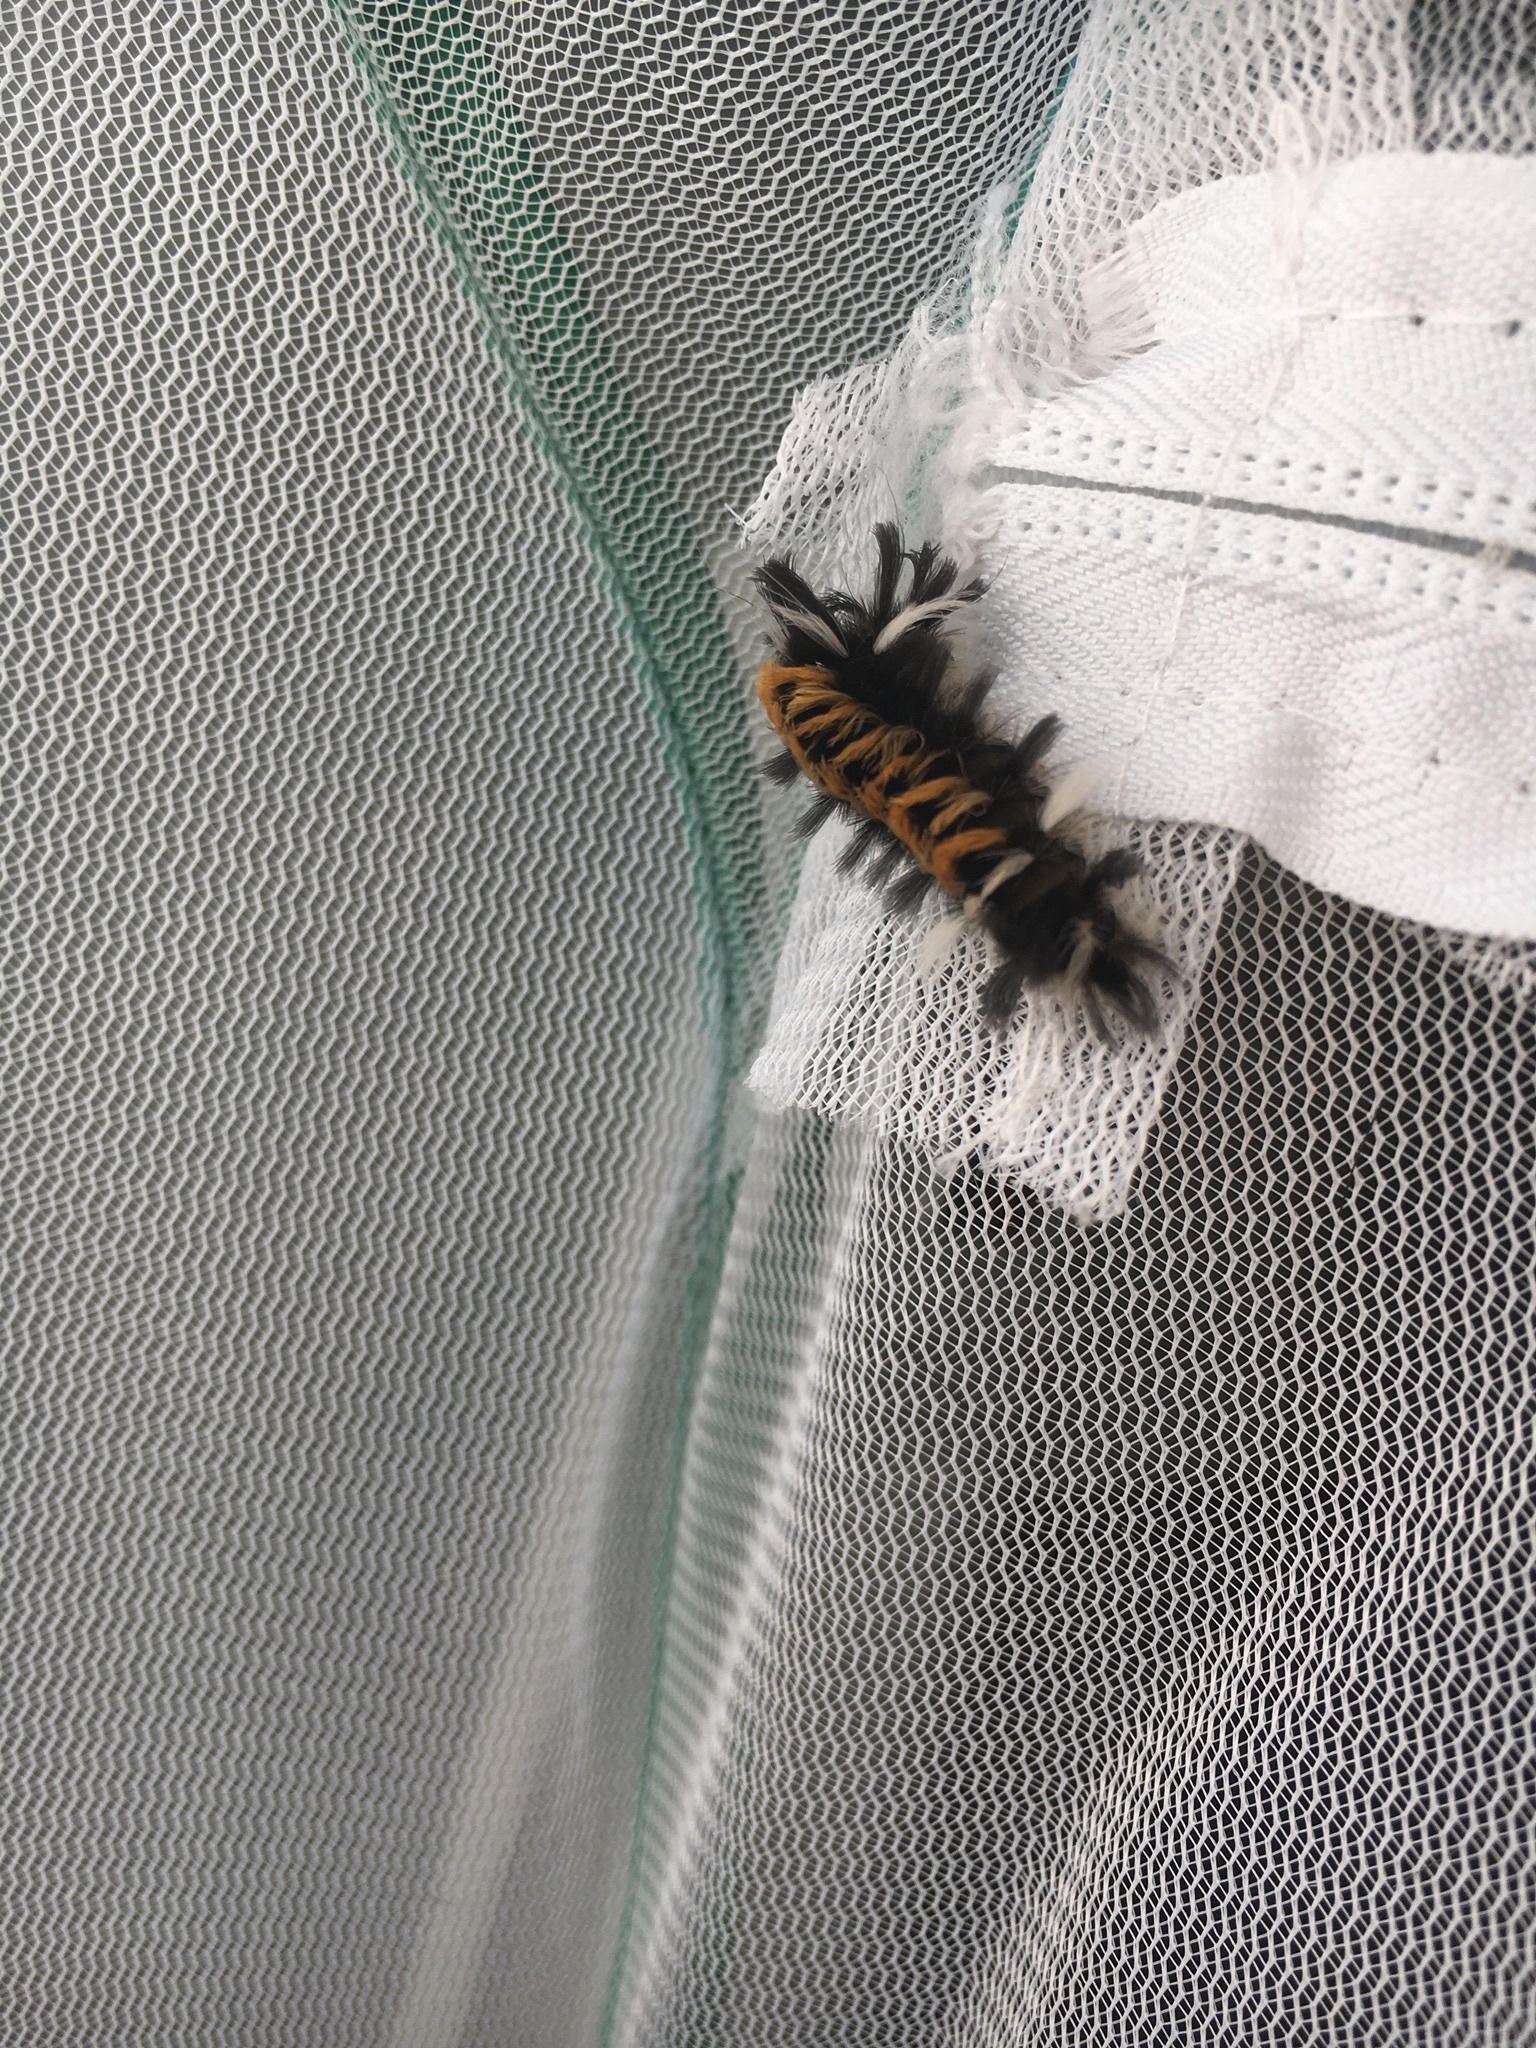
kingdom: Animalia
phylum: Arthropoda
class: Insecta
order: Lepidoptera
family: Erebidae
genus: Euchaetes
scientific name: Euchaetes egle
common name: Milkweed tussock moth
